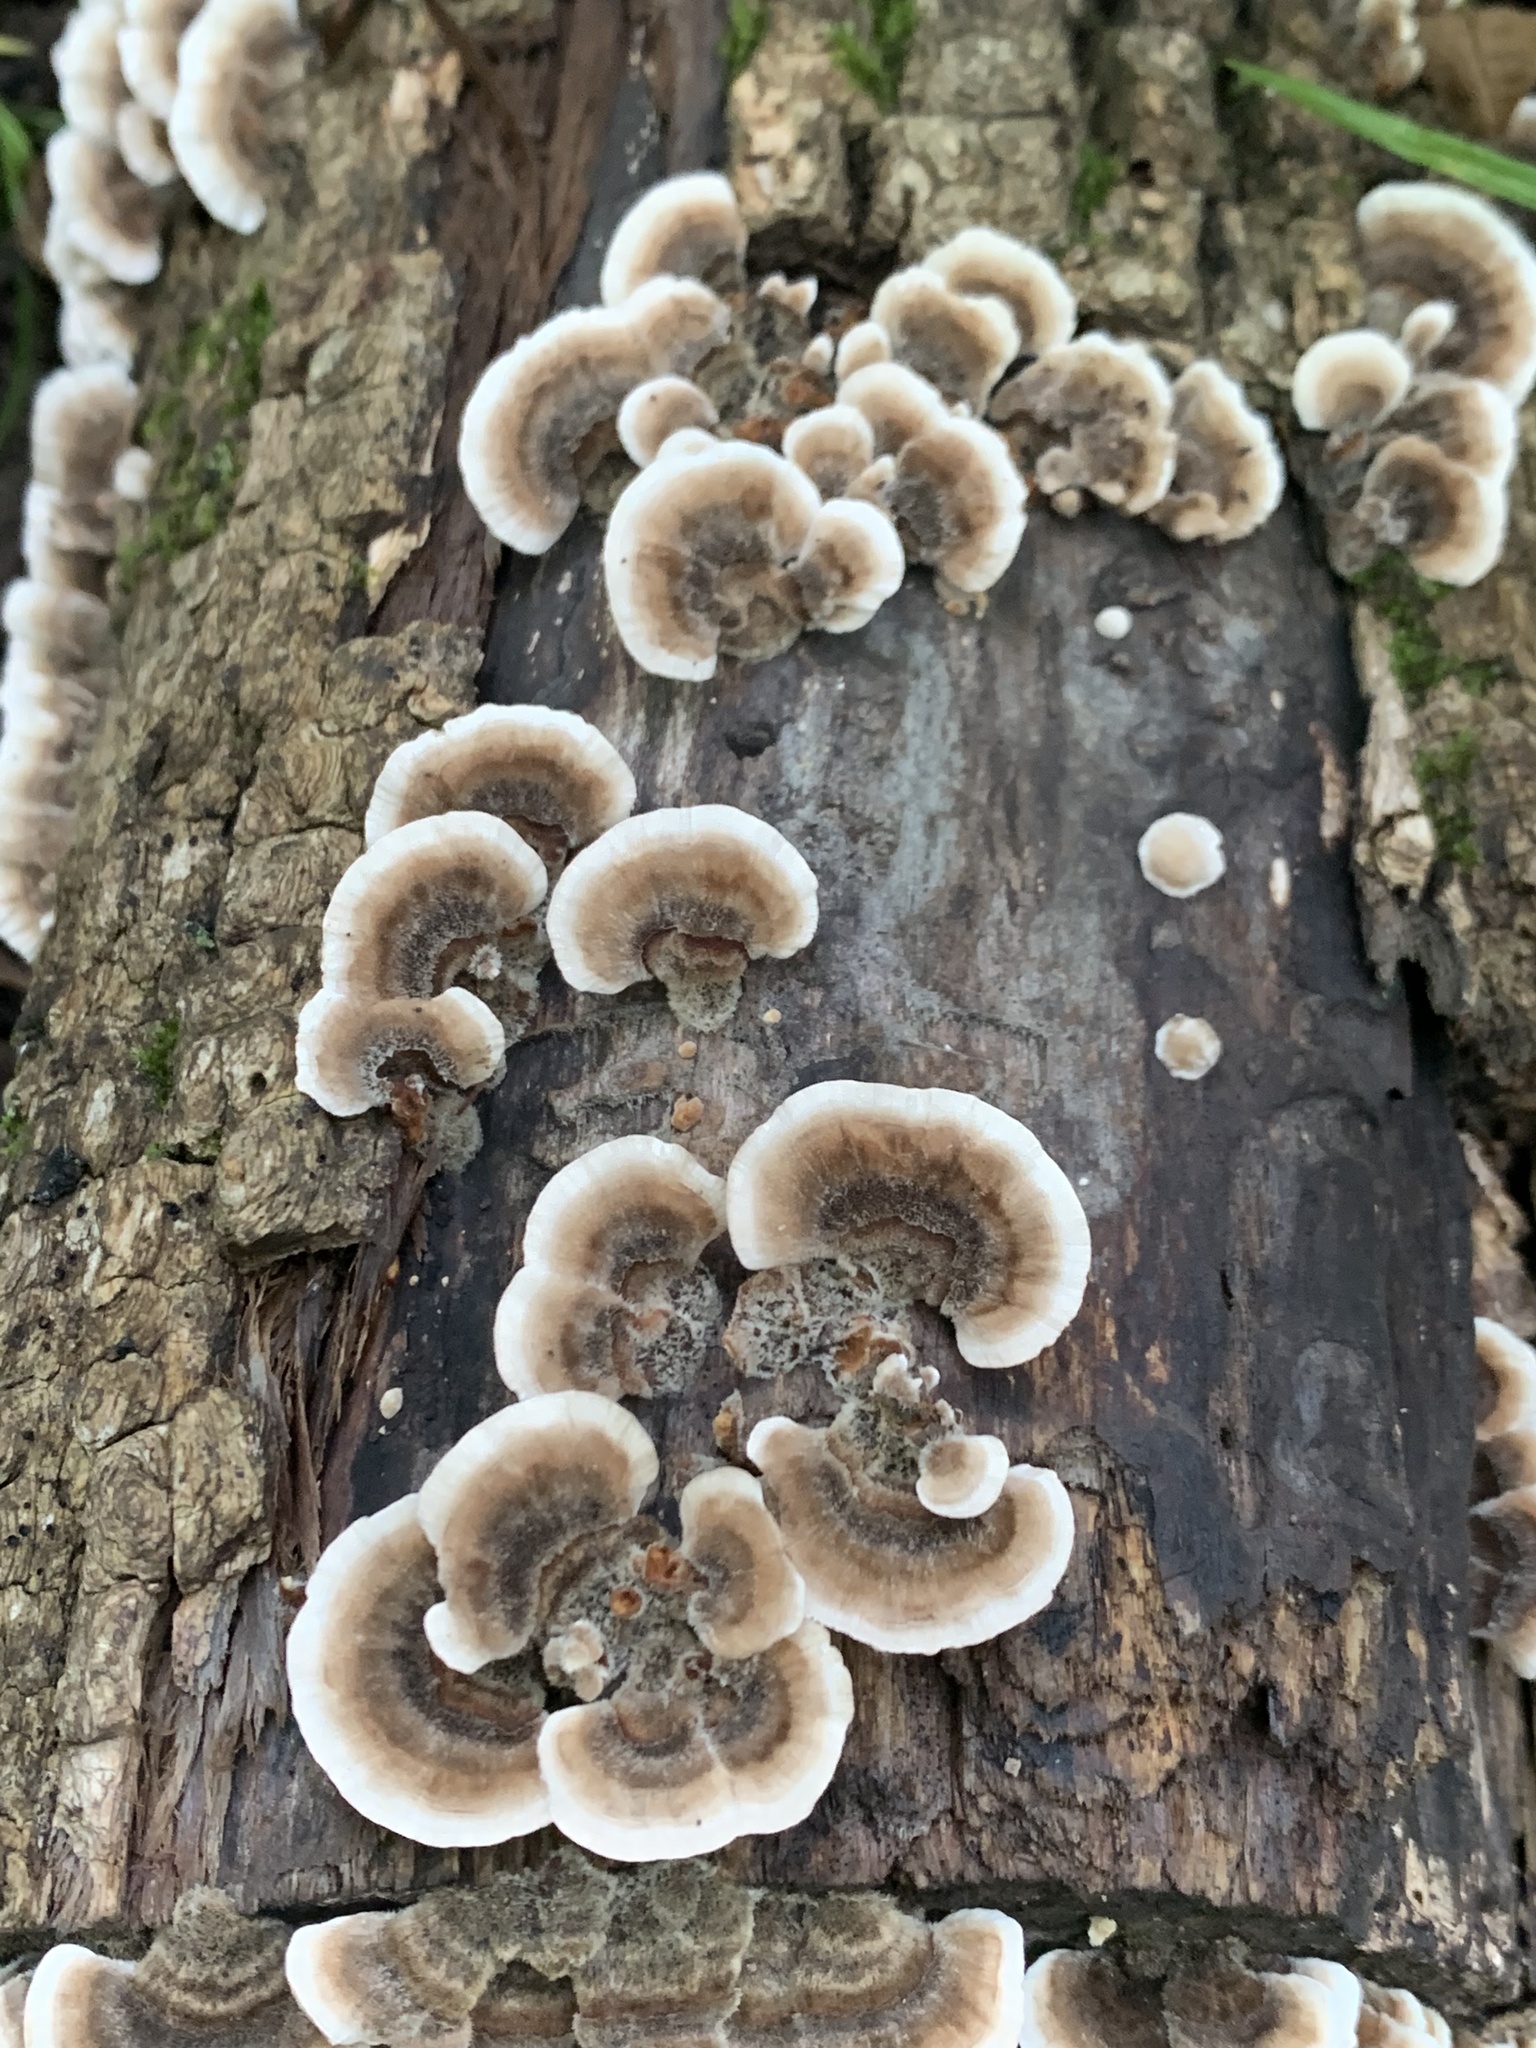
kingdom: Fungi
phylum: Basidiomycota
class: Agaricomycetes
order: Polyporales
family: Polyporaceae
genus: Trametes
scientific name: Trametes versicolor
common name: Turkeytail
